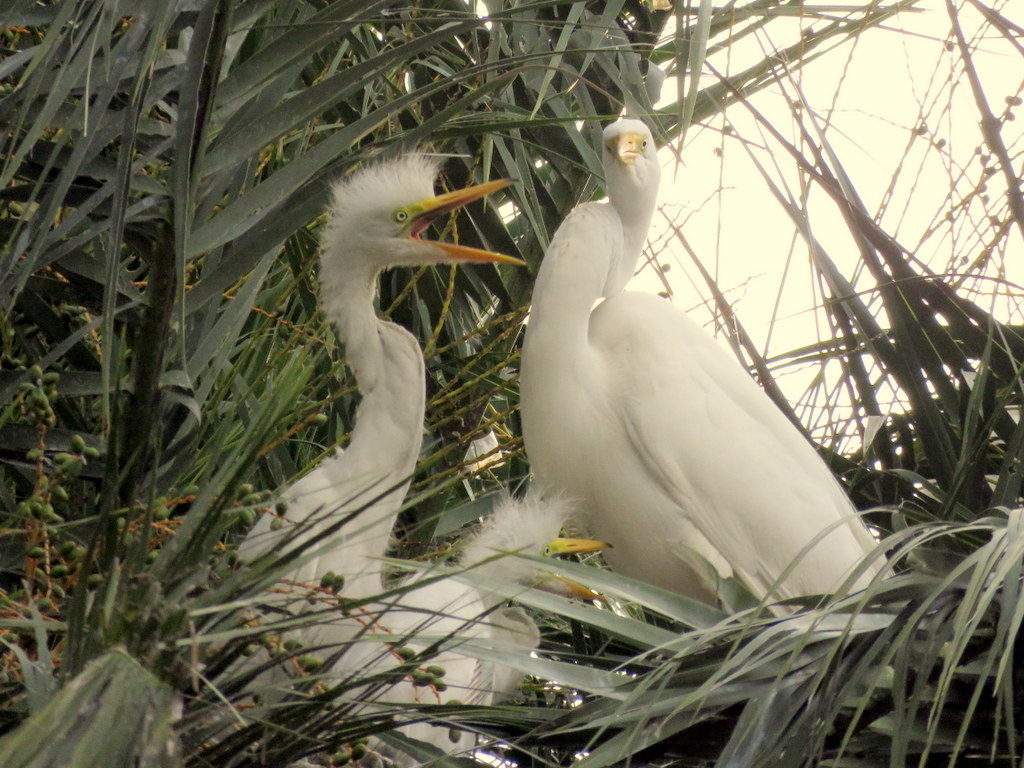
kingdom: Animalia
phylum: Chordata
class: Aves
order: Pelecaniformes
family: Ardeidae
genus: Ardea
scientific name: Ardea alba
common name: Great egret
